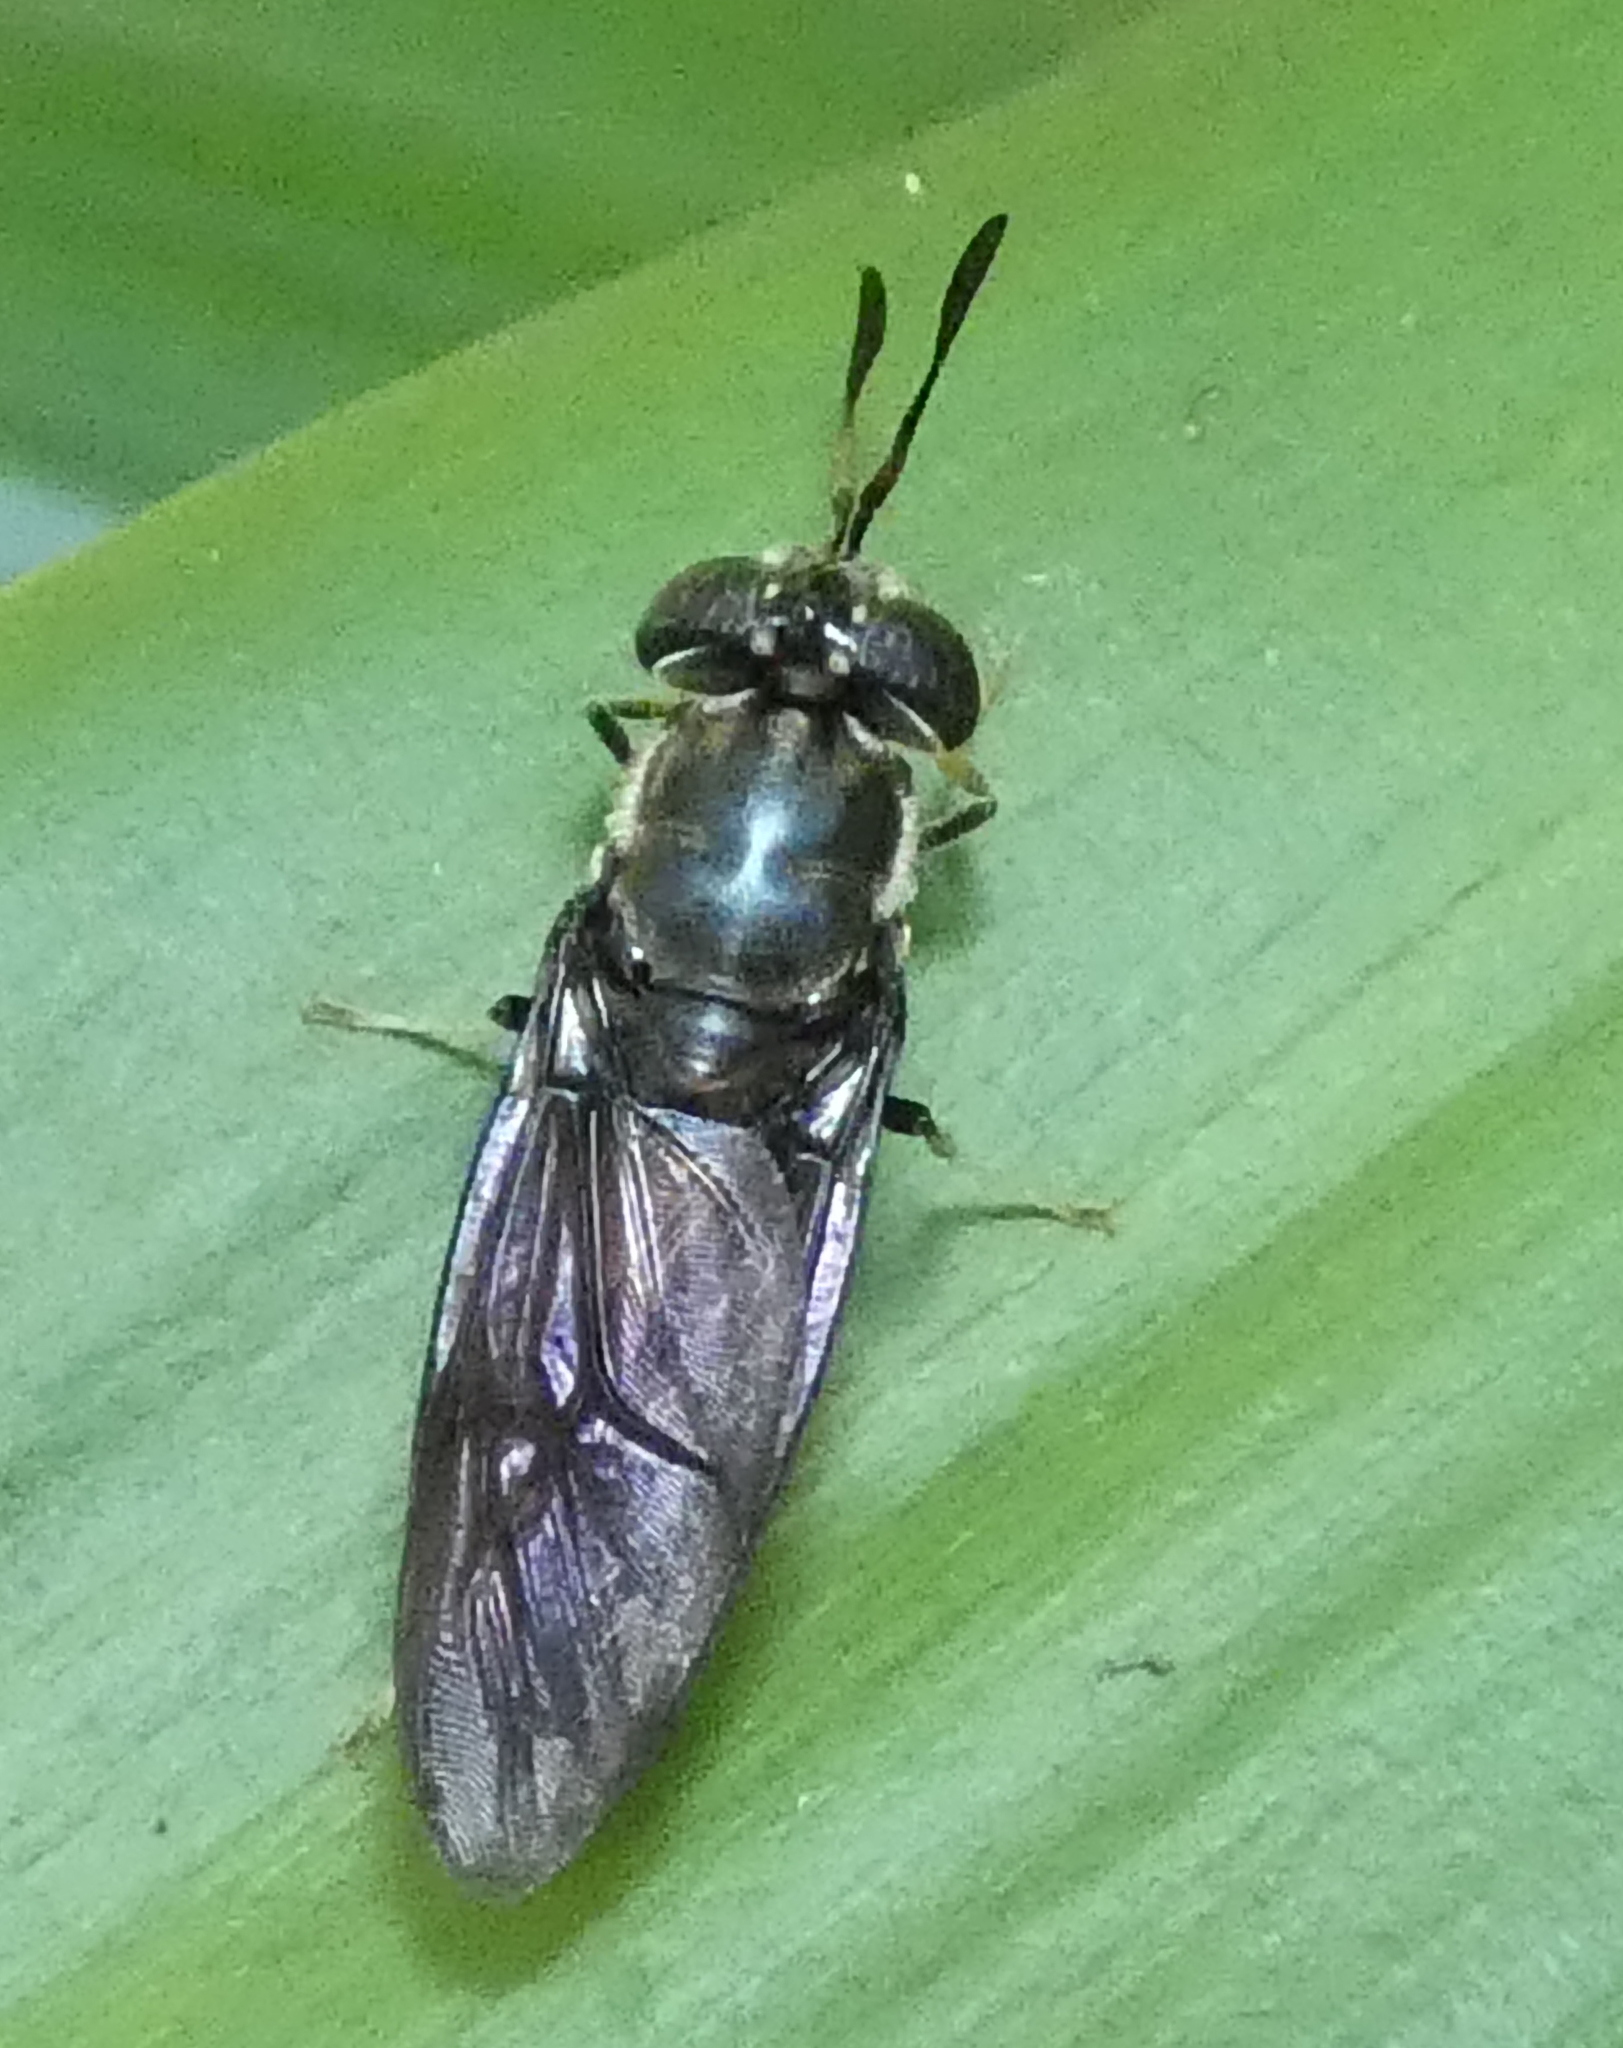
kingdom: Animalia
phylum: Arthropoda
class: Insecta
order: Diptera
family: Stratiomyidae
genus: Hermetia
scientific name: Hermetia illucens
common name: Black soldier fly
